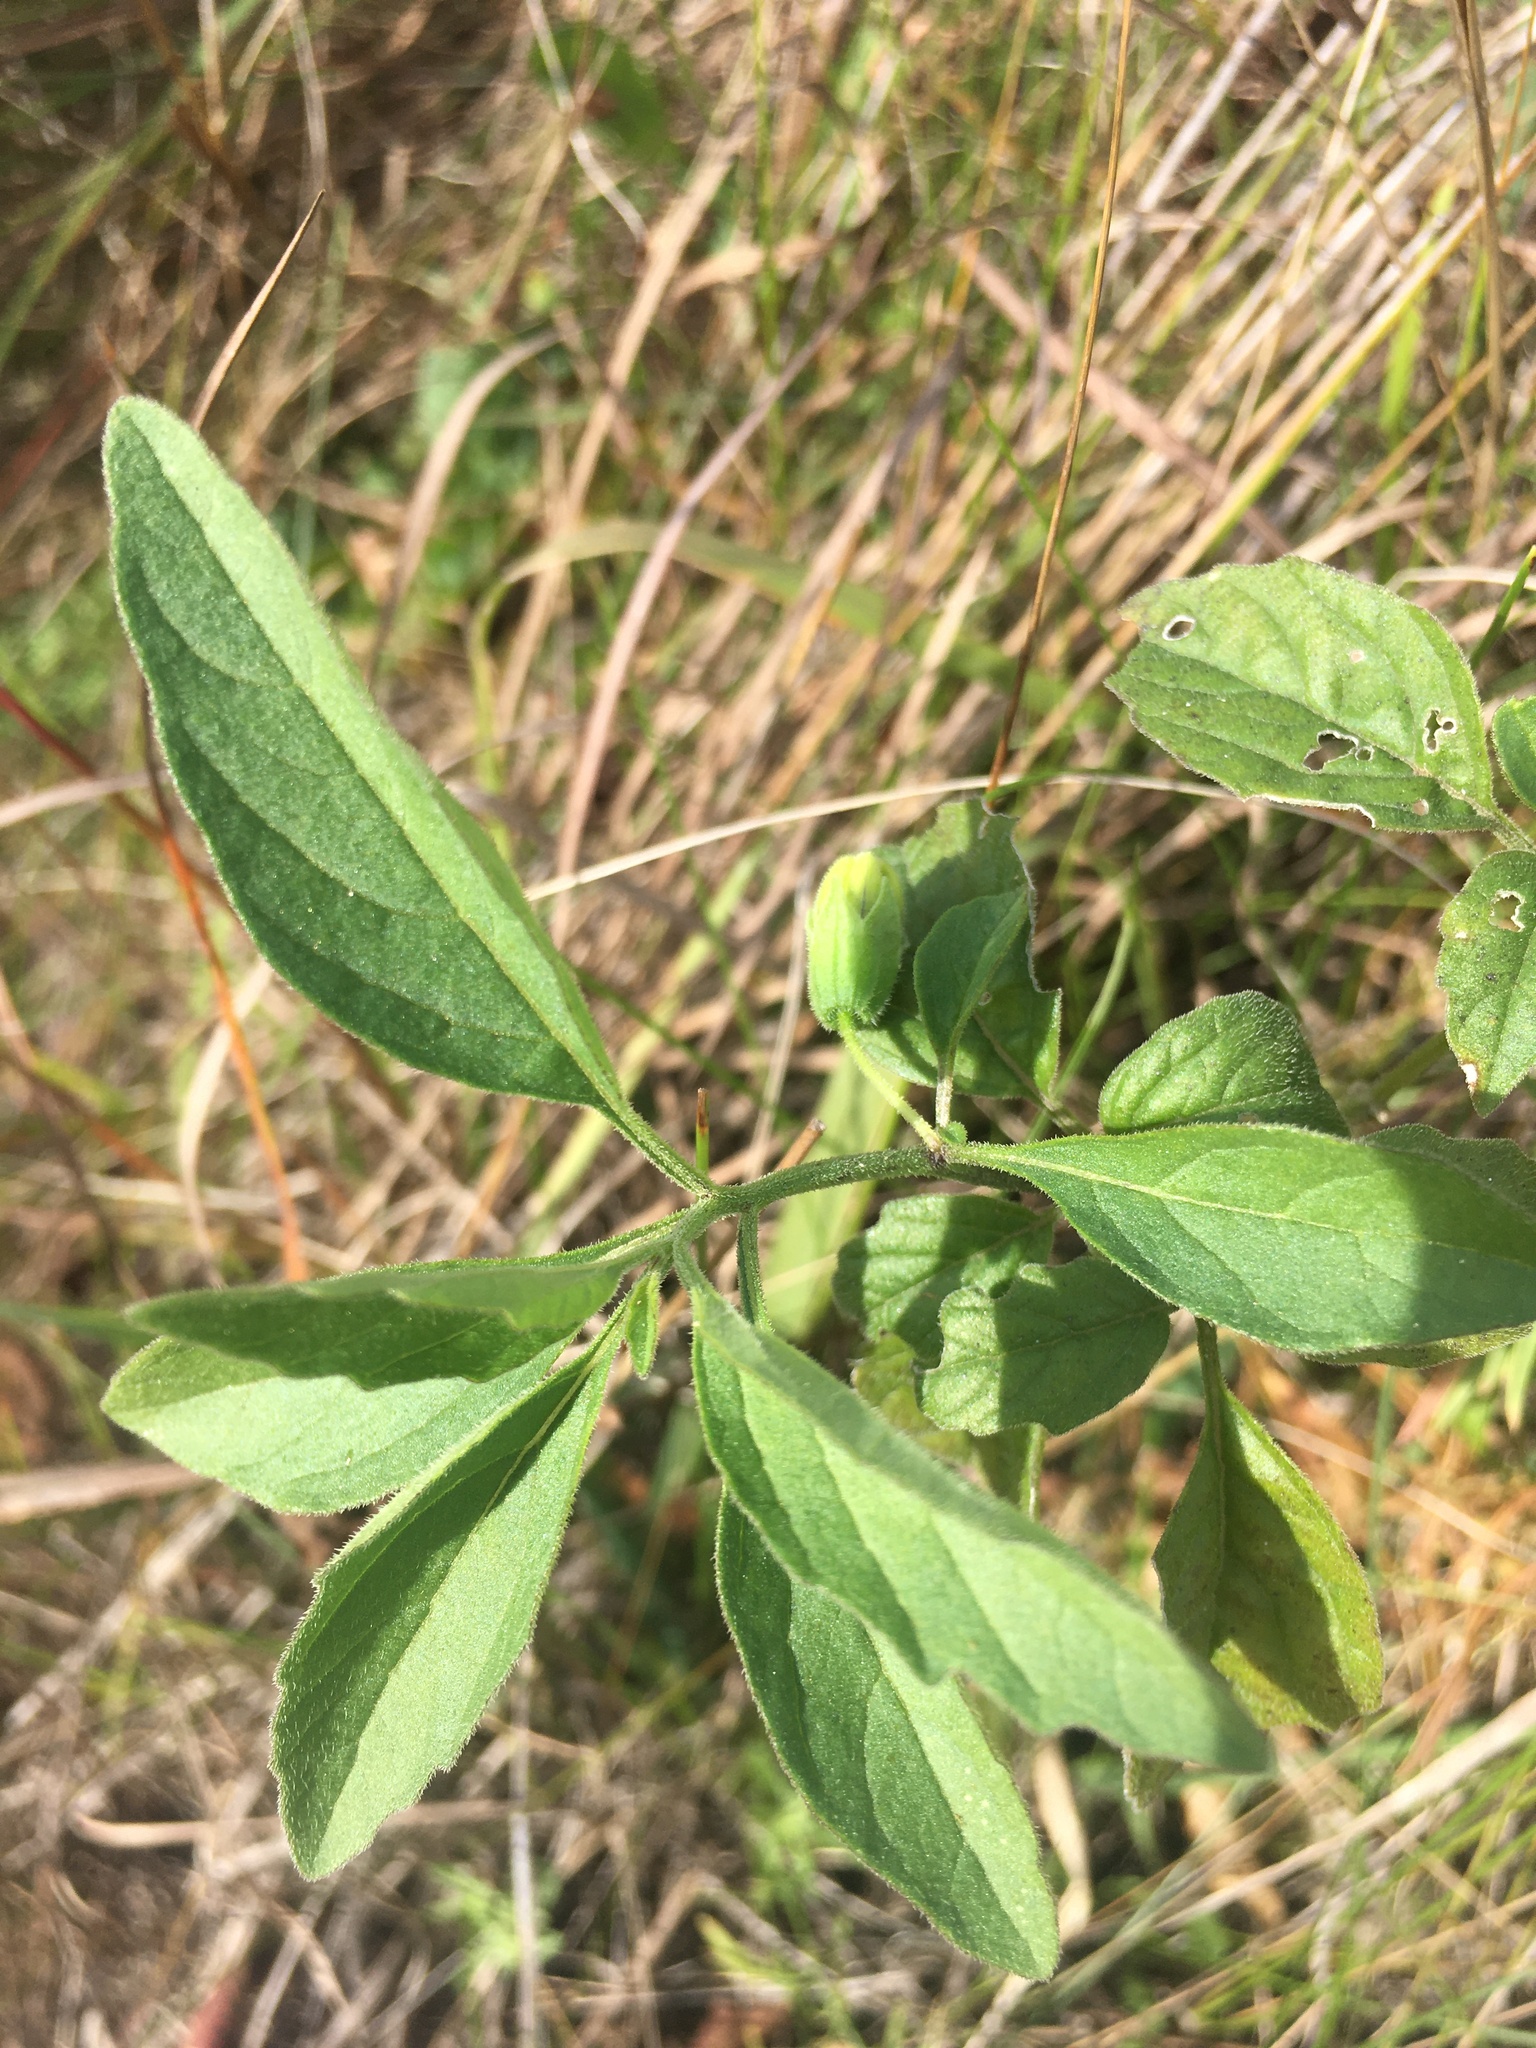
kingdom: Plantae
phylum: Tracheophyta
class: Magnoliopsida
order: Solanales
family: Solanaceae
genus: Physalis
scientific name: Physalis virginiana
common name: Virginia ground-cherry
